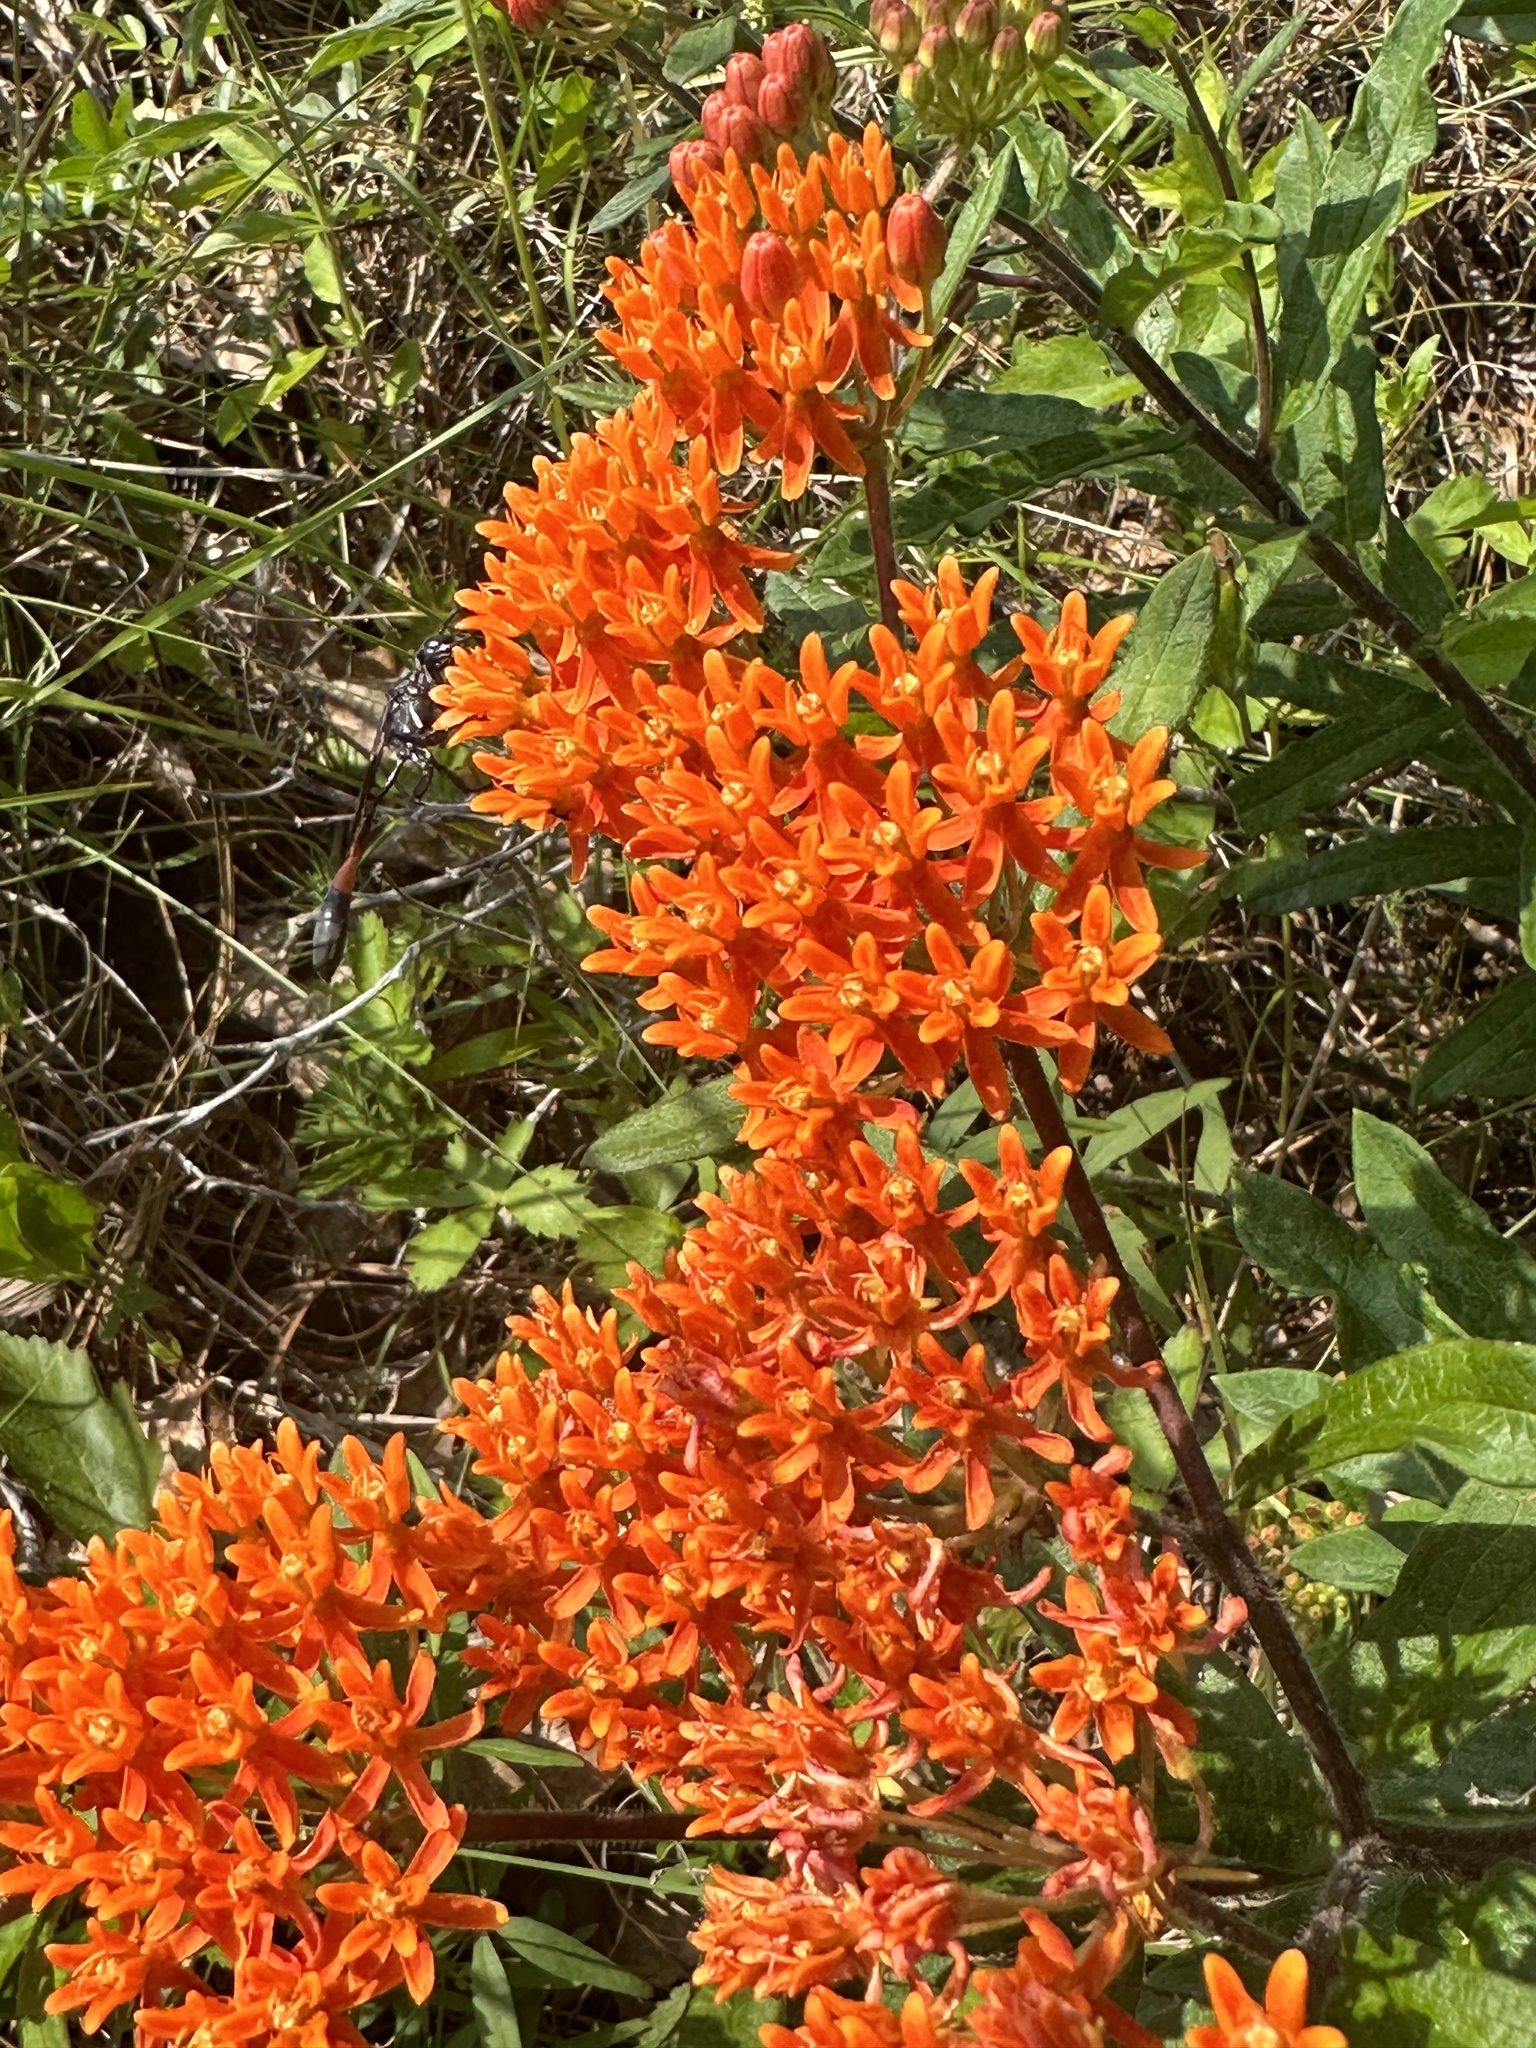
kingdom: Plantae
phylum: Tracheophyta
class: Magnoliopsida
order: Gentianales
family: Apocynaceae
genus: Asclepias
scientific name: Asclepias tuberosa
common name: Butterfly milkweed
